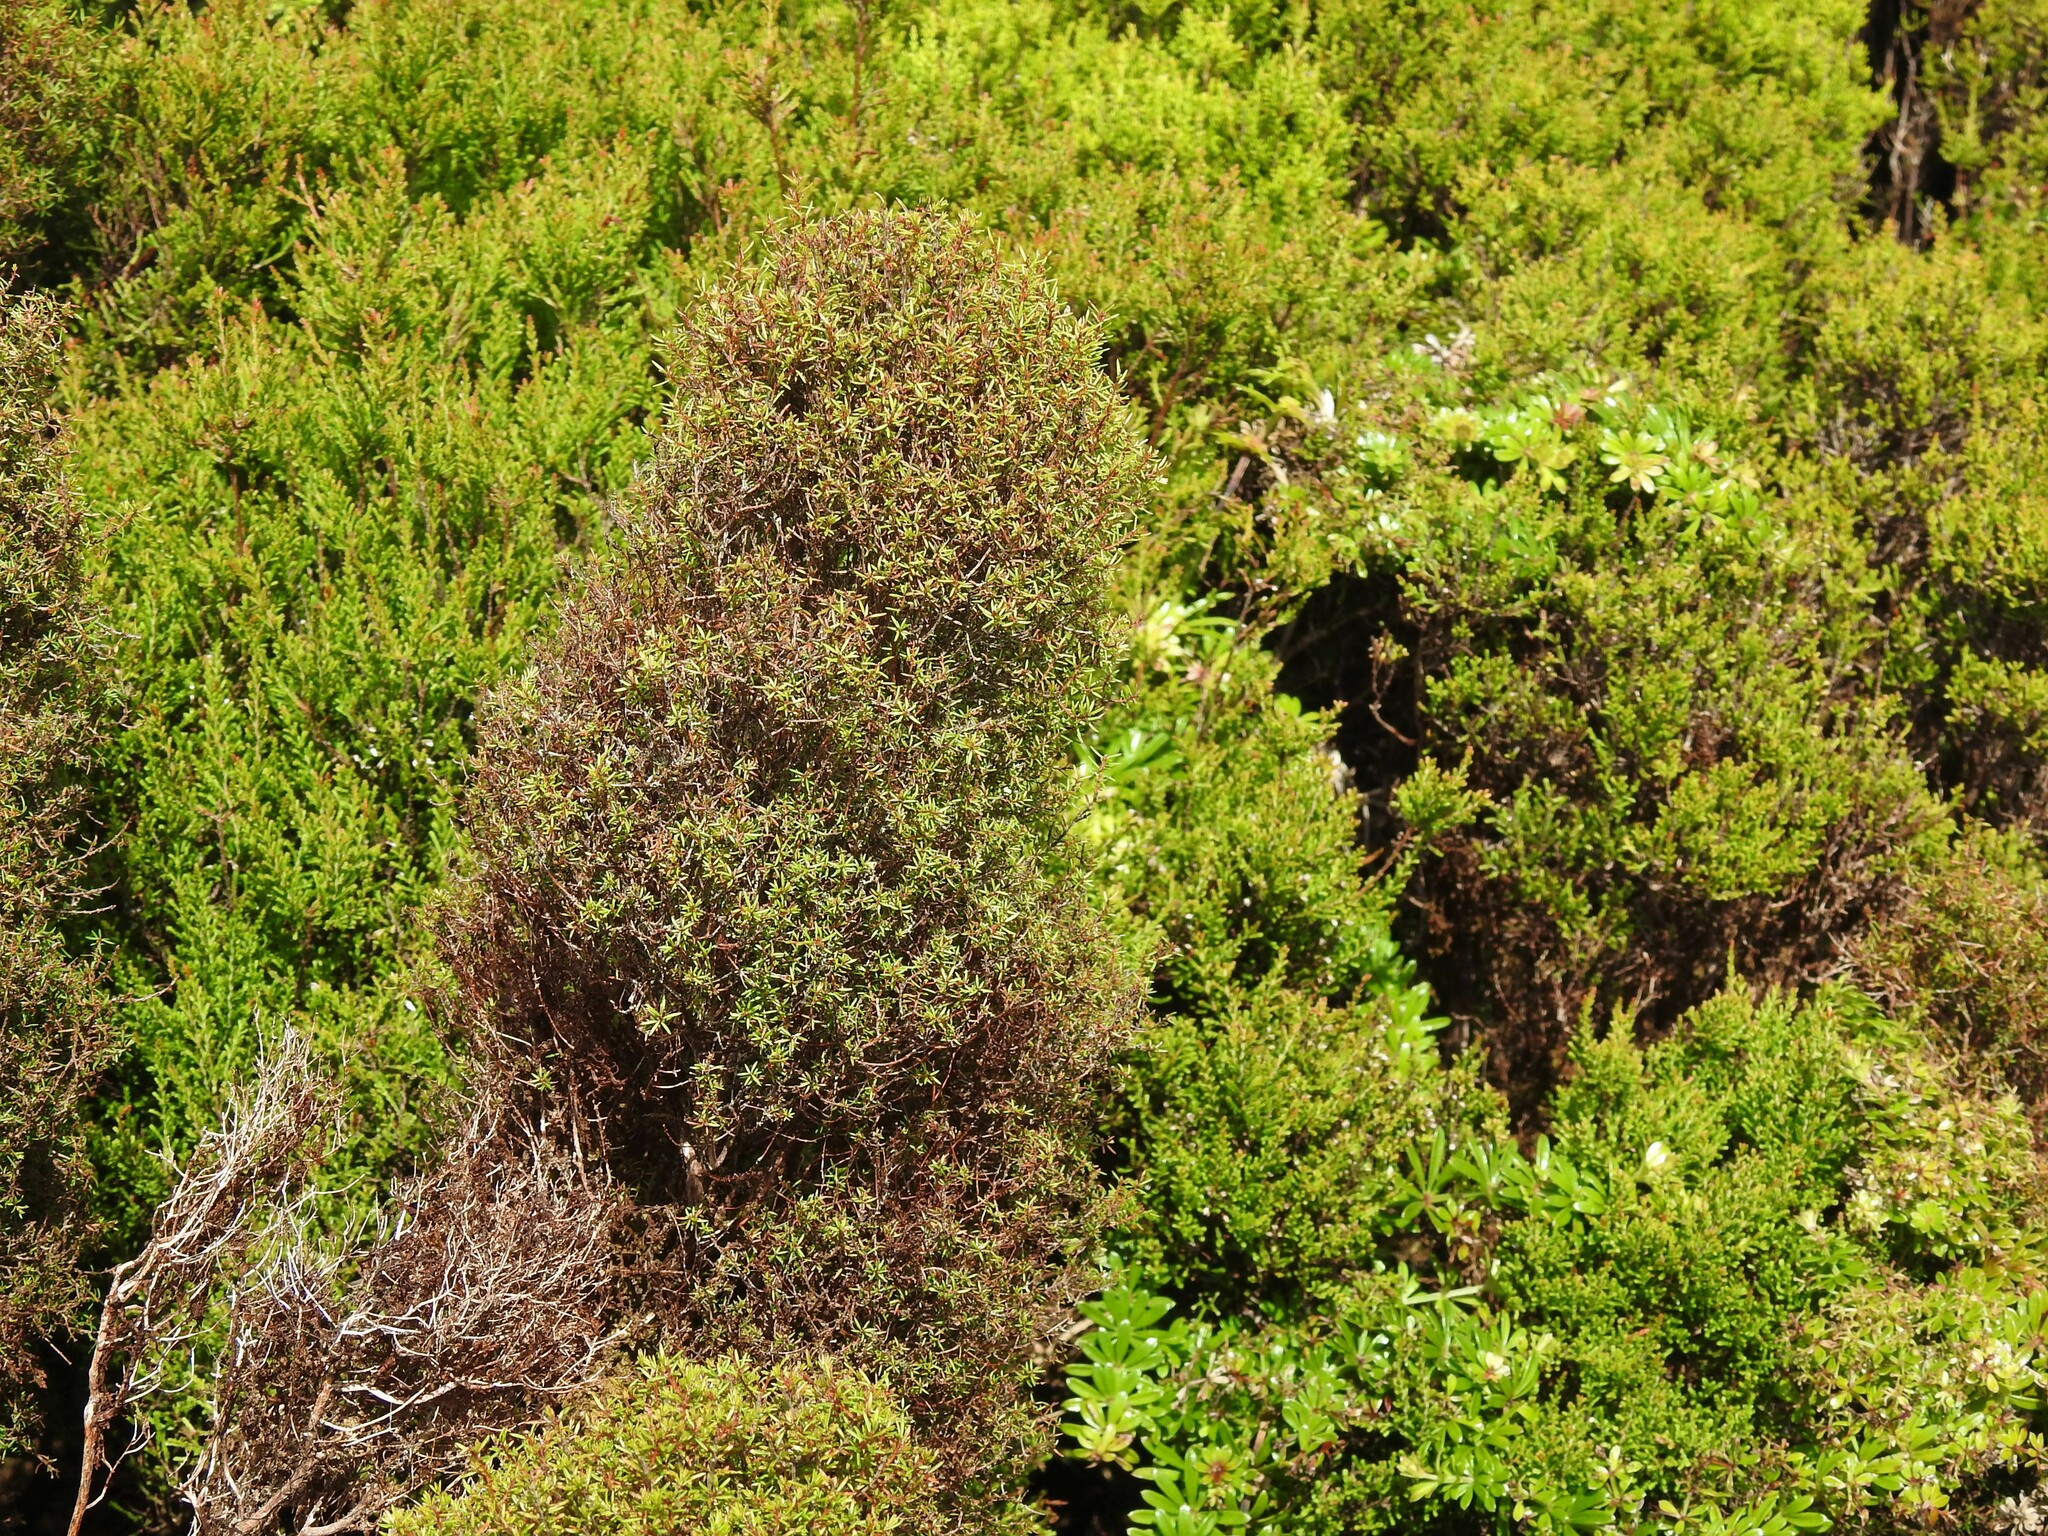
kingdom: Plantae
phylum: Tracheophyta
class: Magnoliopsida
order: Ericales
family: Ericaceae
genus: Erica
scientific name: Erica azorica
